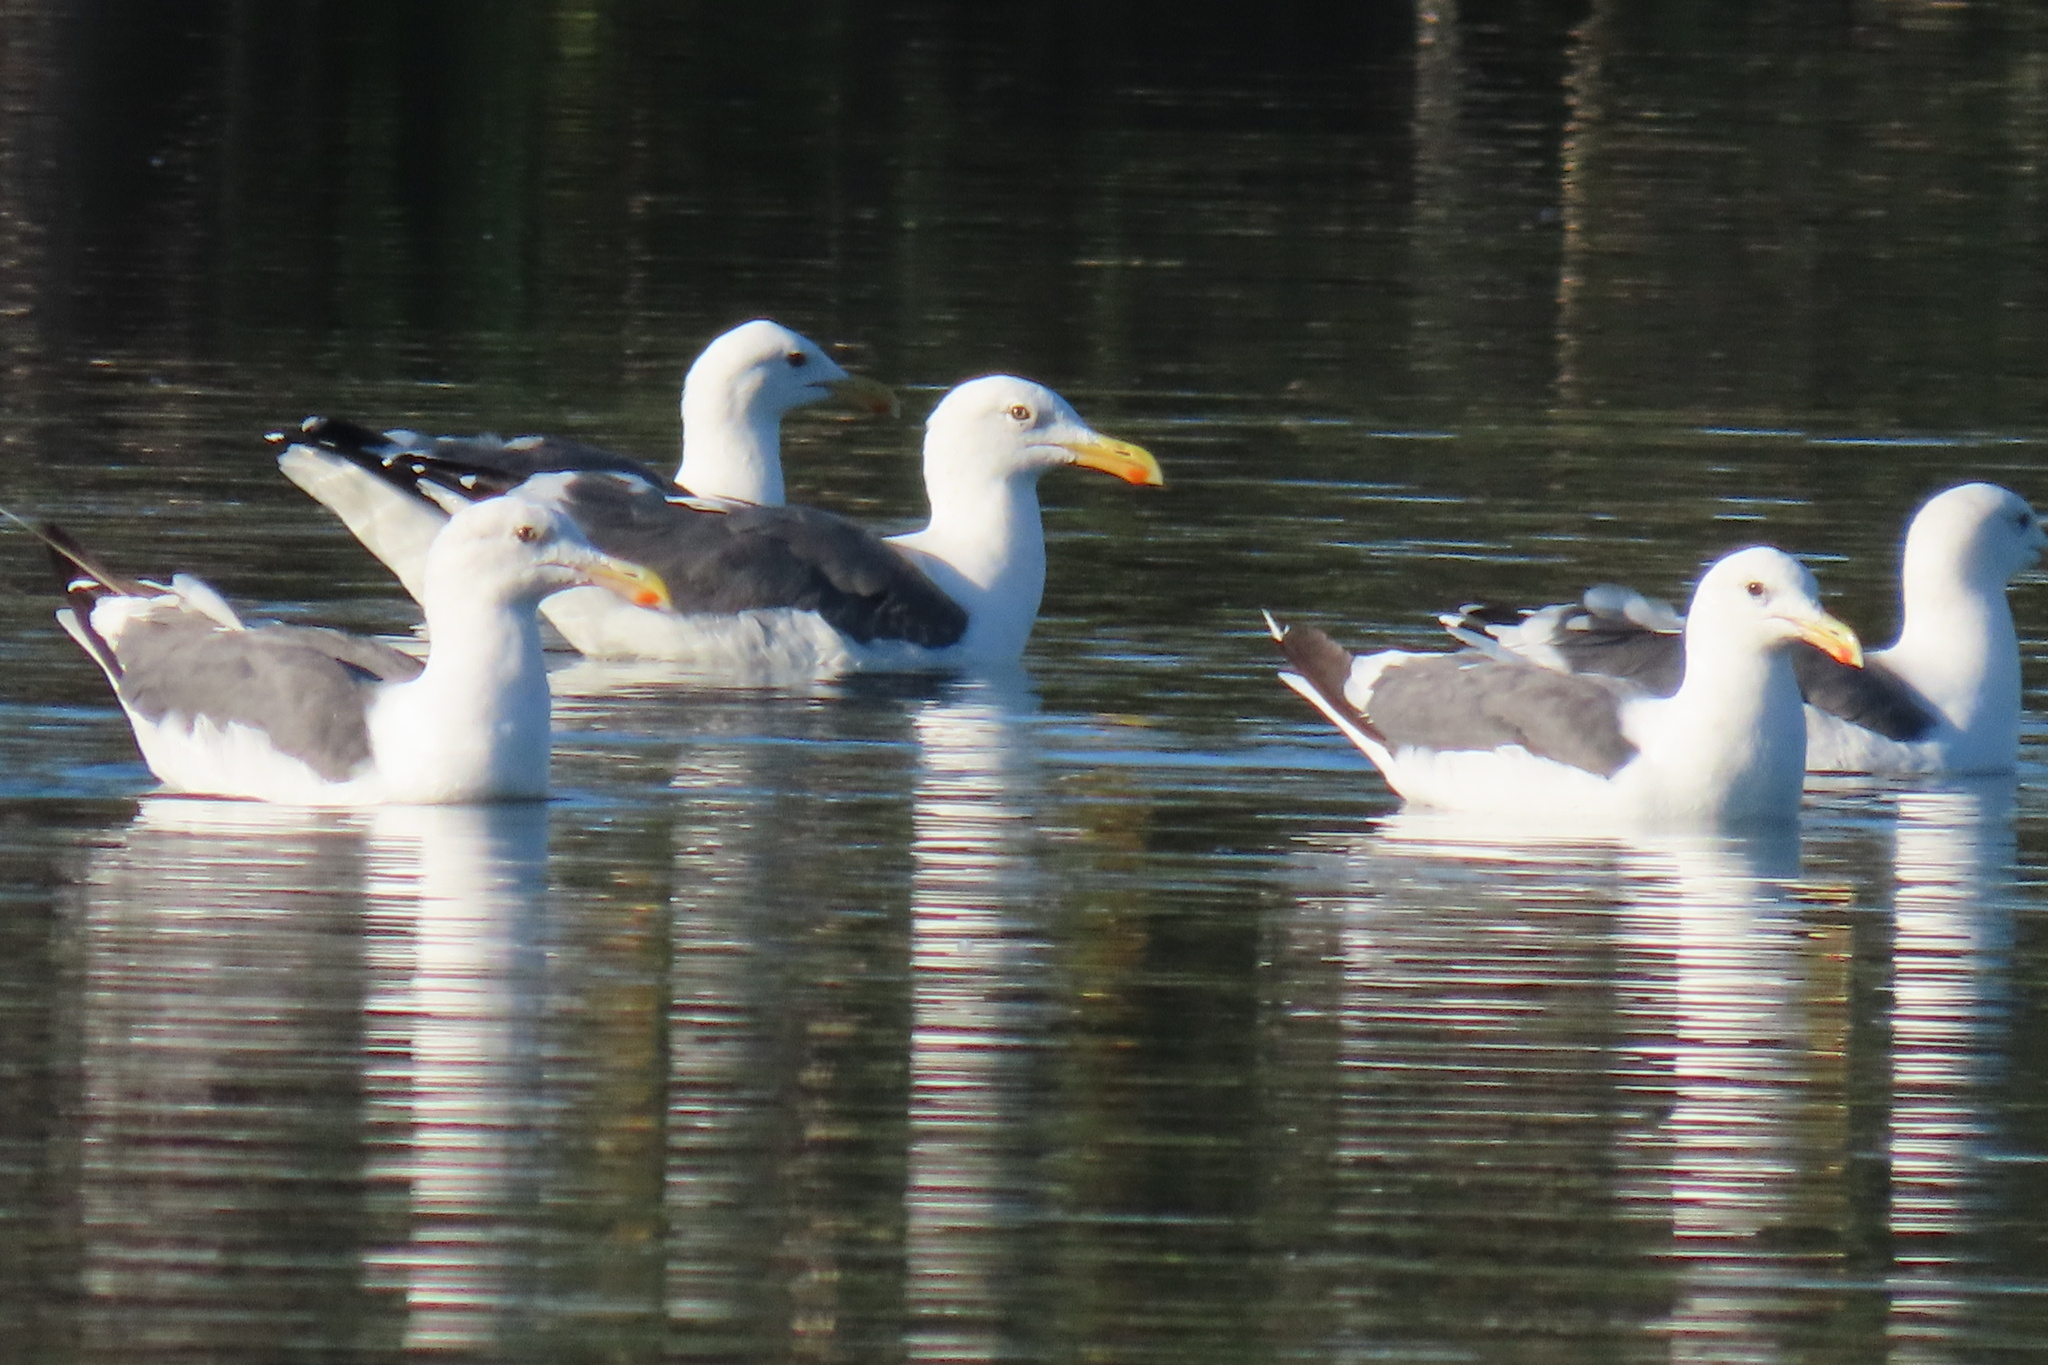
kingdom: Animalia
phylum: Chordata
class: Aves
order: Charadriiformes
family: Laridae
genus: Larus
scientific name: Larus occidentalis
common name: Western gull
